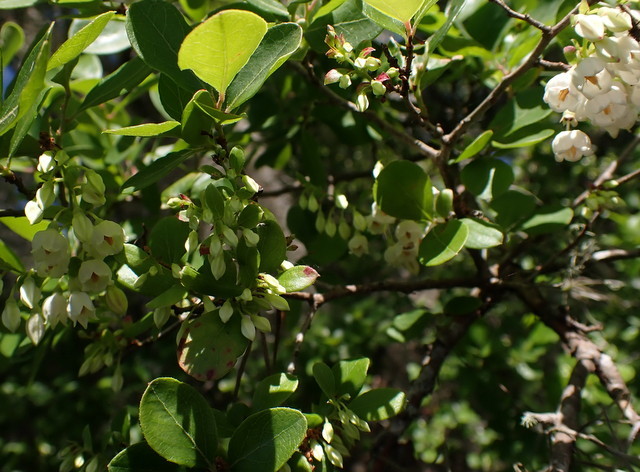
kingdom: Plantae
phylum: Tracheophyta
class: Magnoliopsida
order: Ericales
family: Ericaceae
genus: Vaccinium
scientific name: Vaccinium arboreum
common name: Farkleberry
